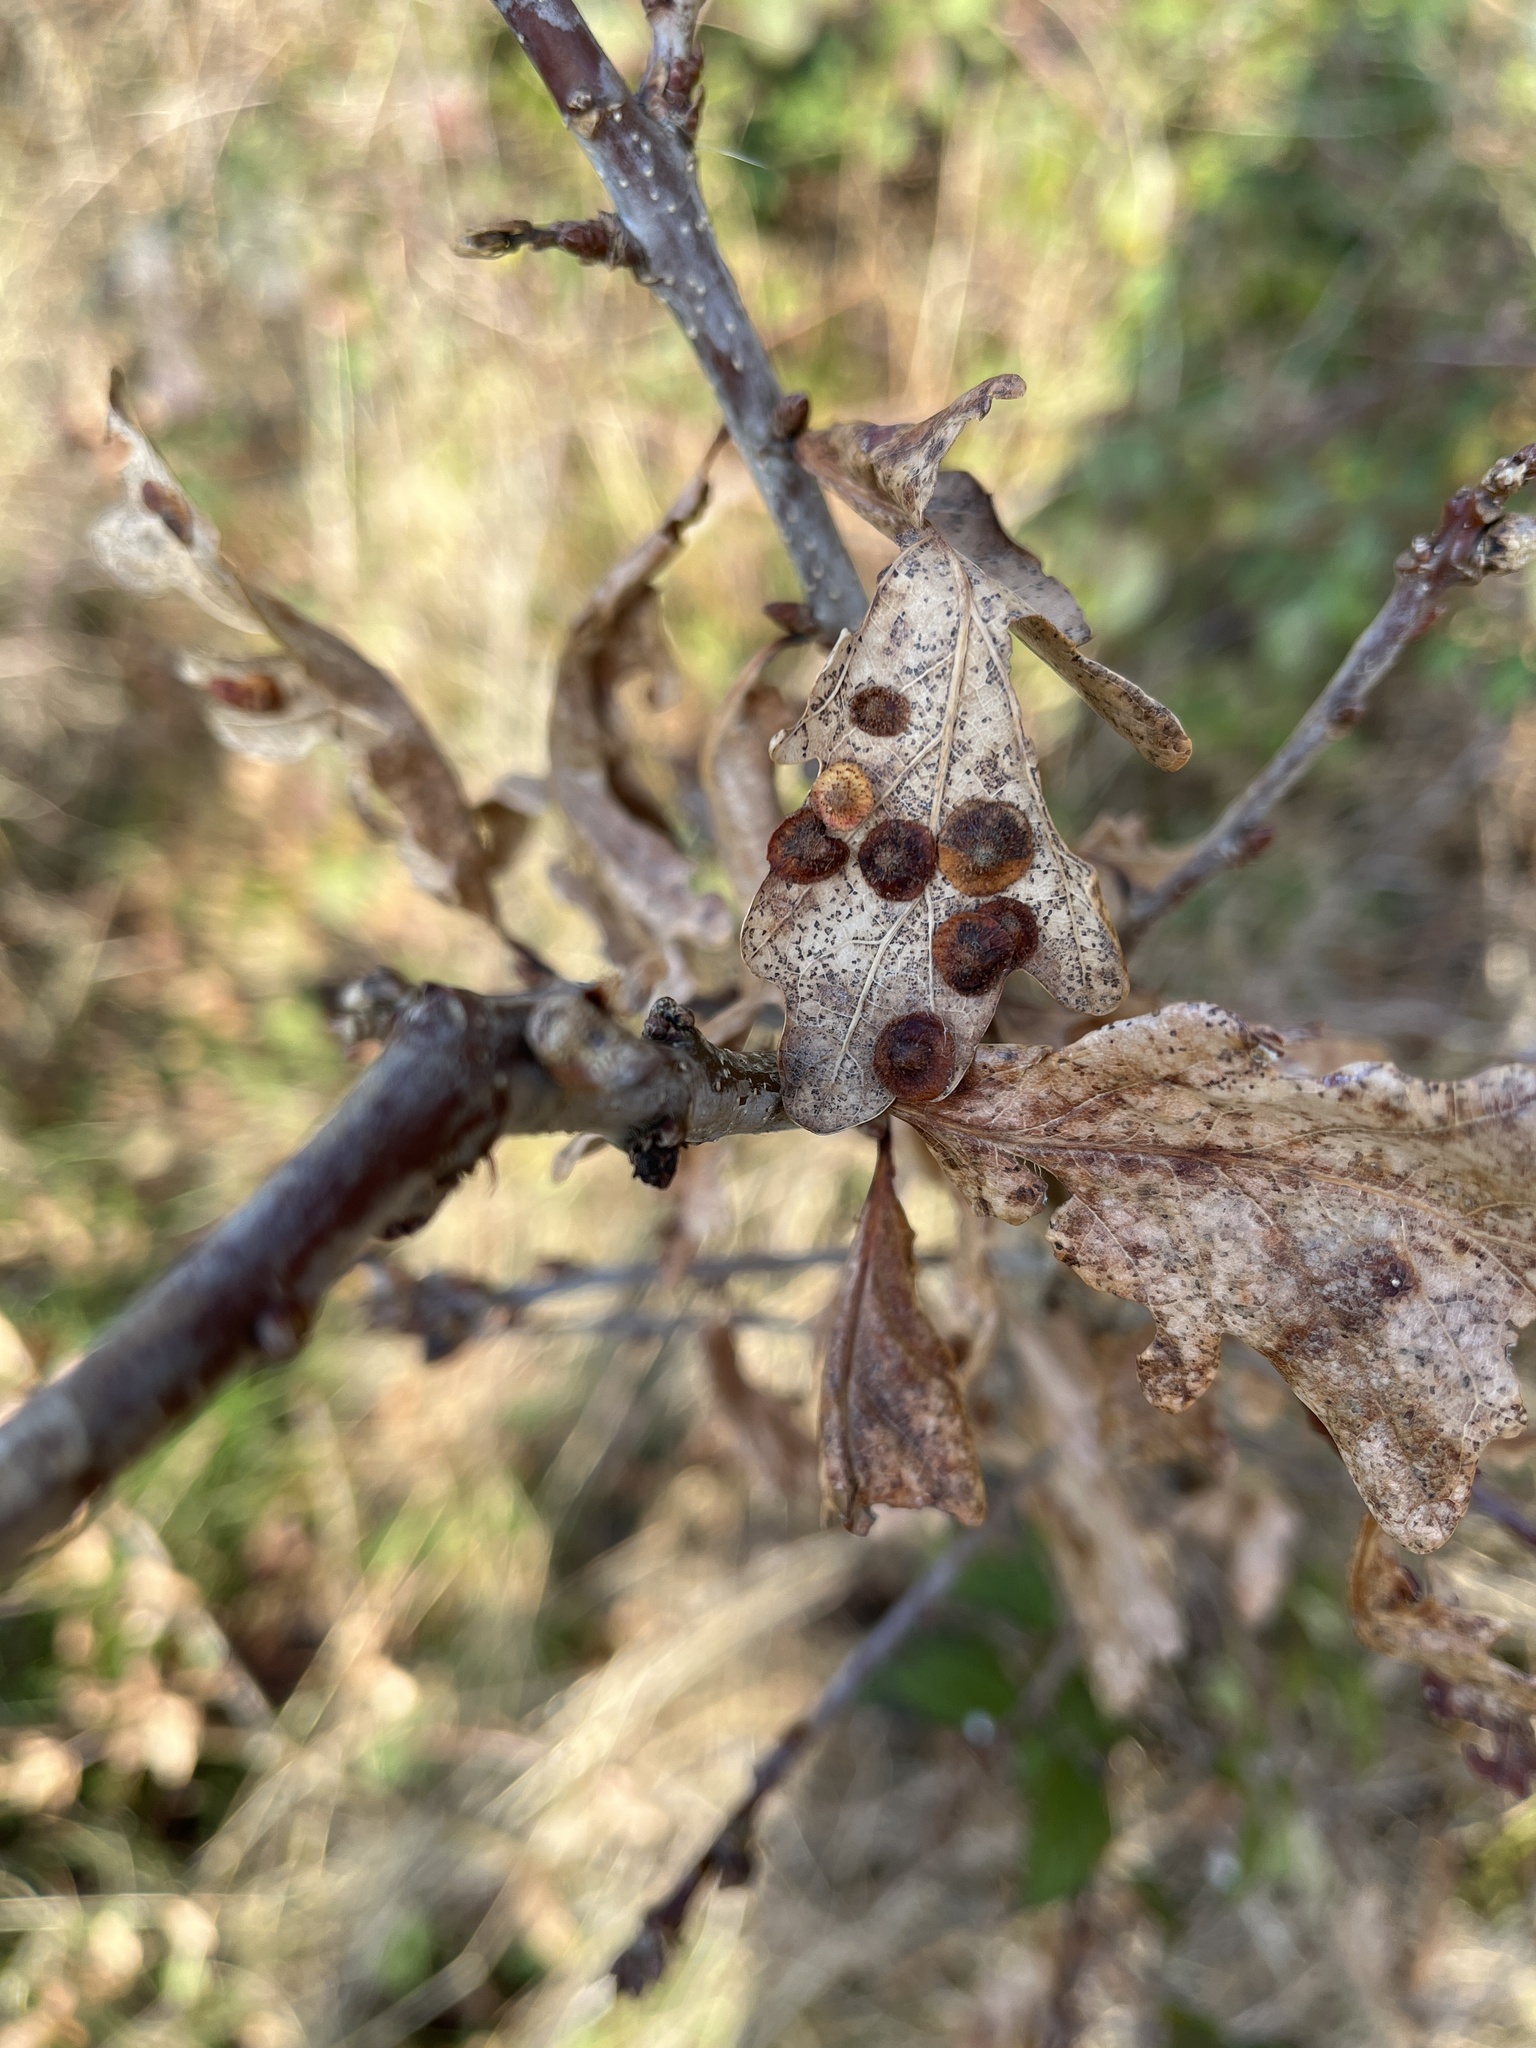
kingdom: Animalia
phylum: Arthropoda
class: Insecta
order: Hymenoptera
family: Cynipidae
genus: Neuroterus
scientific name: Neuroterus quercusbaccarum
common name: Common spangle gall
